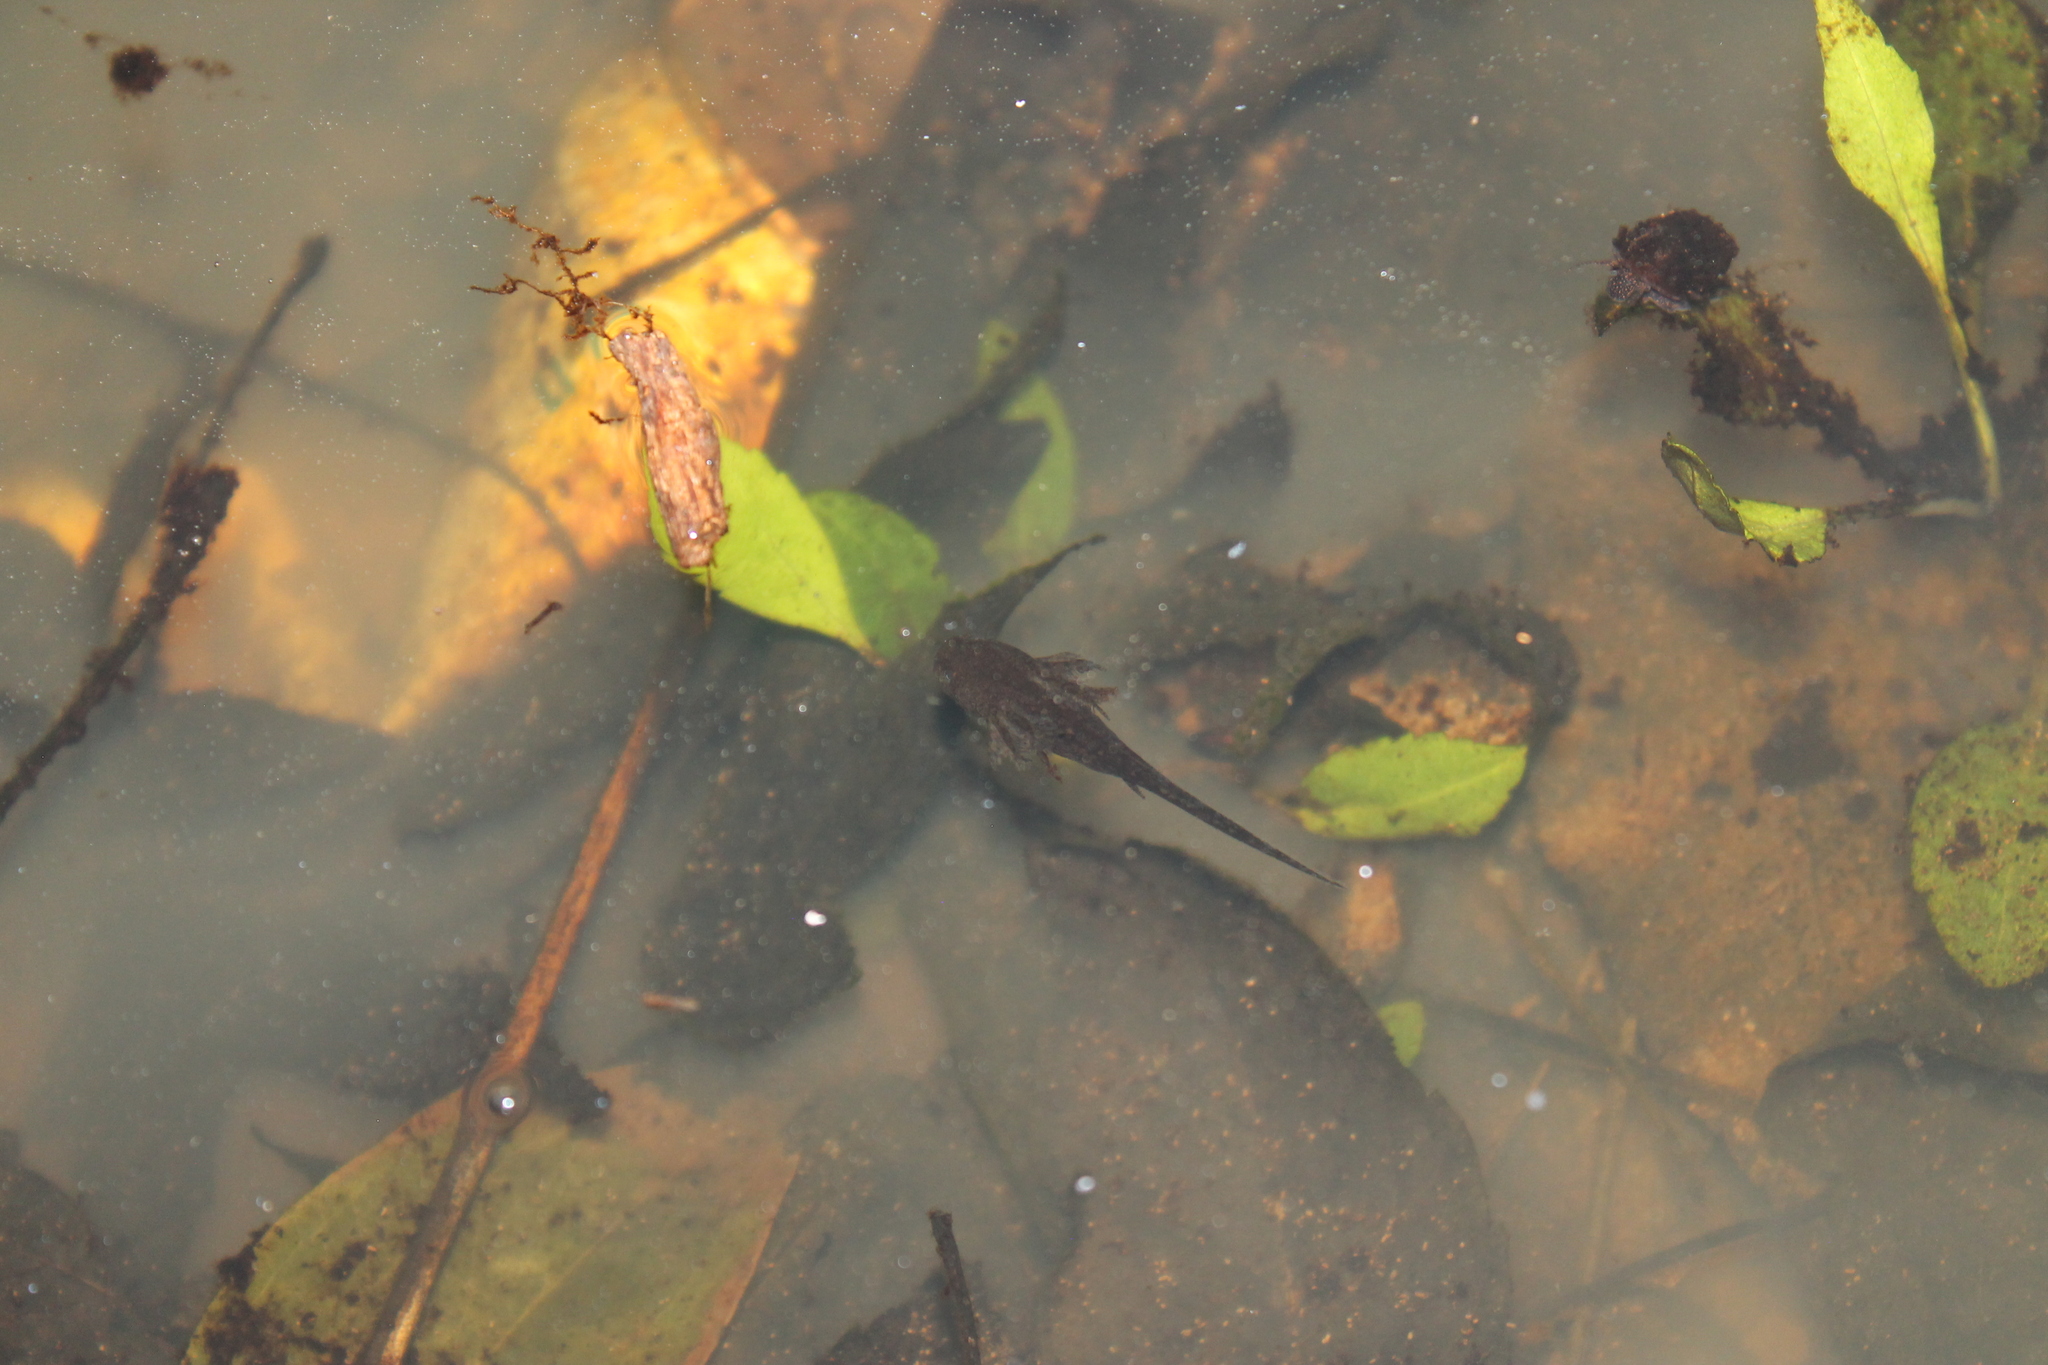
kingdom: Animalia
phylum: Chordata
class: Amphibia
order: Caudata
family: Ambystomatidae
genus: Ambystoma
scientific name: Ambystoma opacum
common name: Marbled salamander
